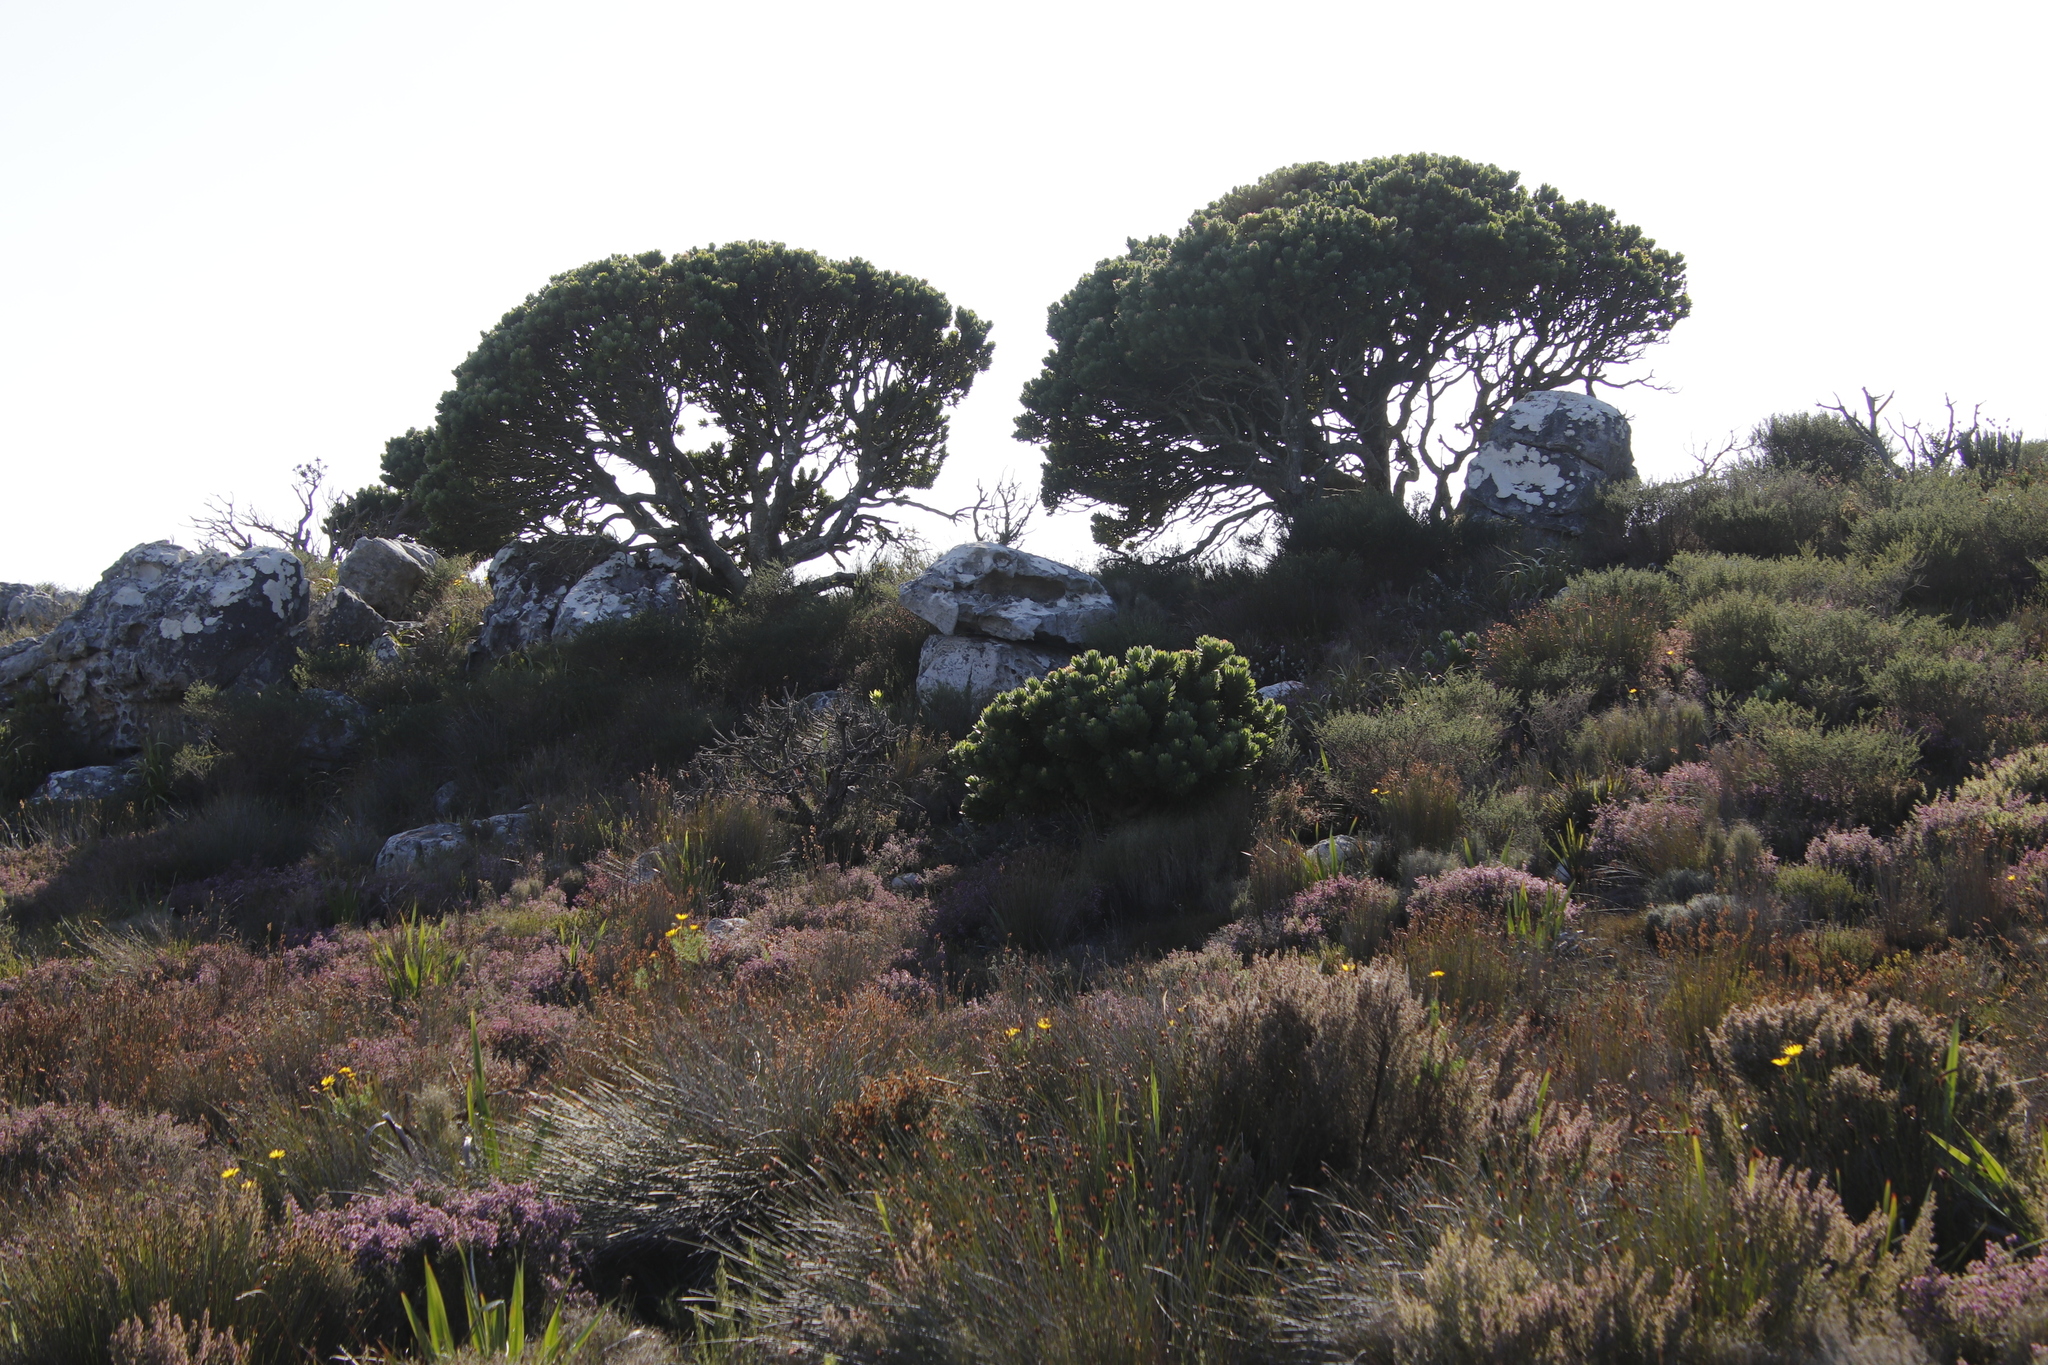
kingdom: Plantae
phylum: Tracheophyta
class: Magnoliopsida
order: Proteales
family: Proteaceae
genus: Mimetes
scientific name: Mimetes fimbriifolius
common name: Fringed bottlebrush
